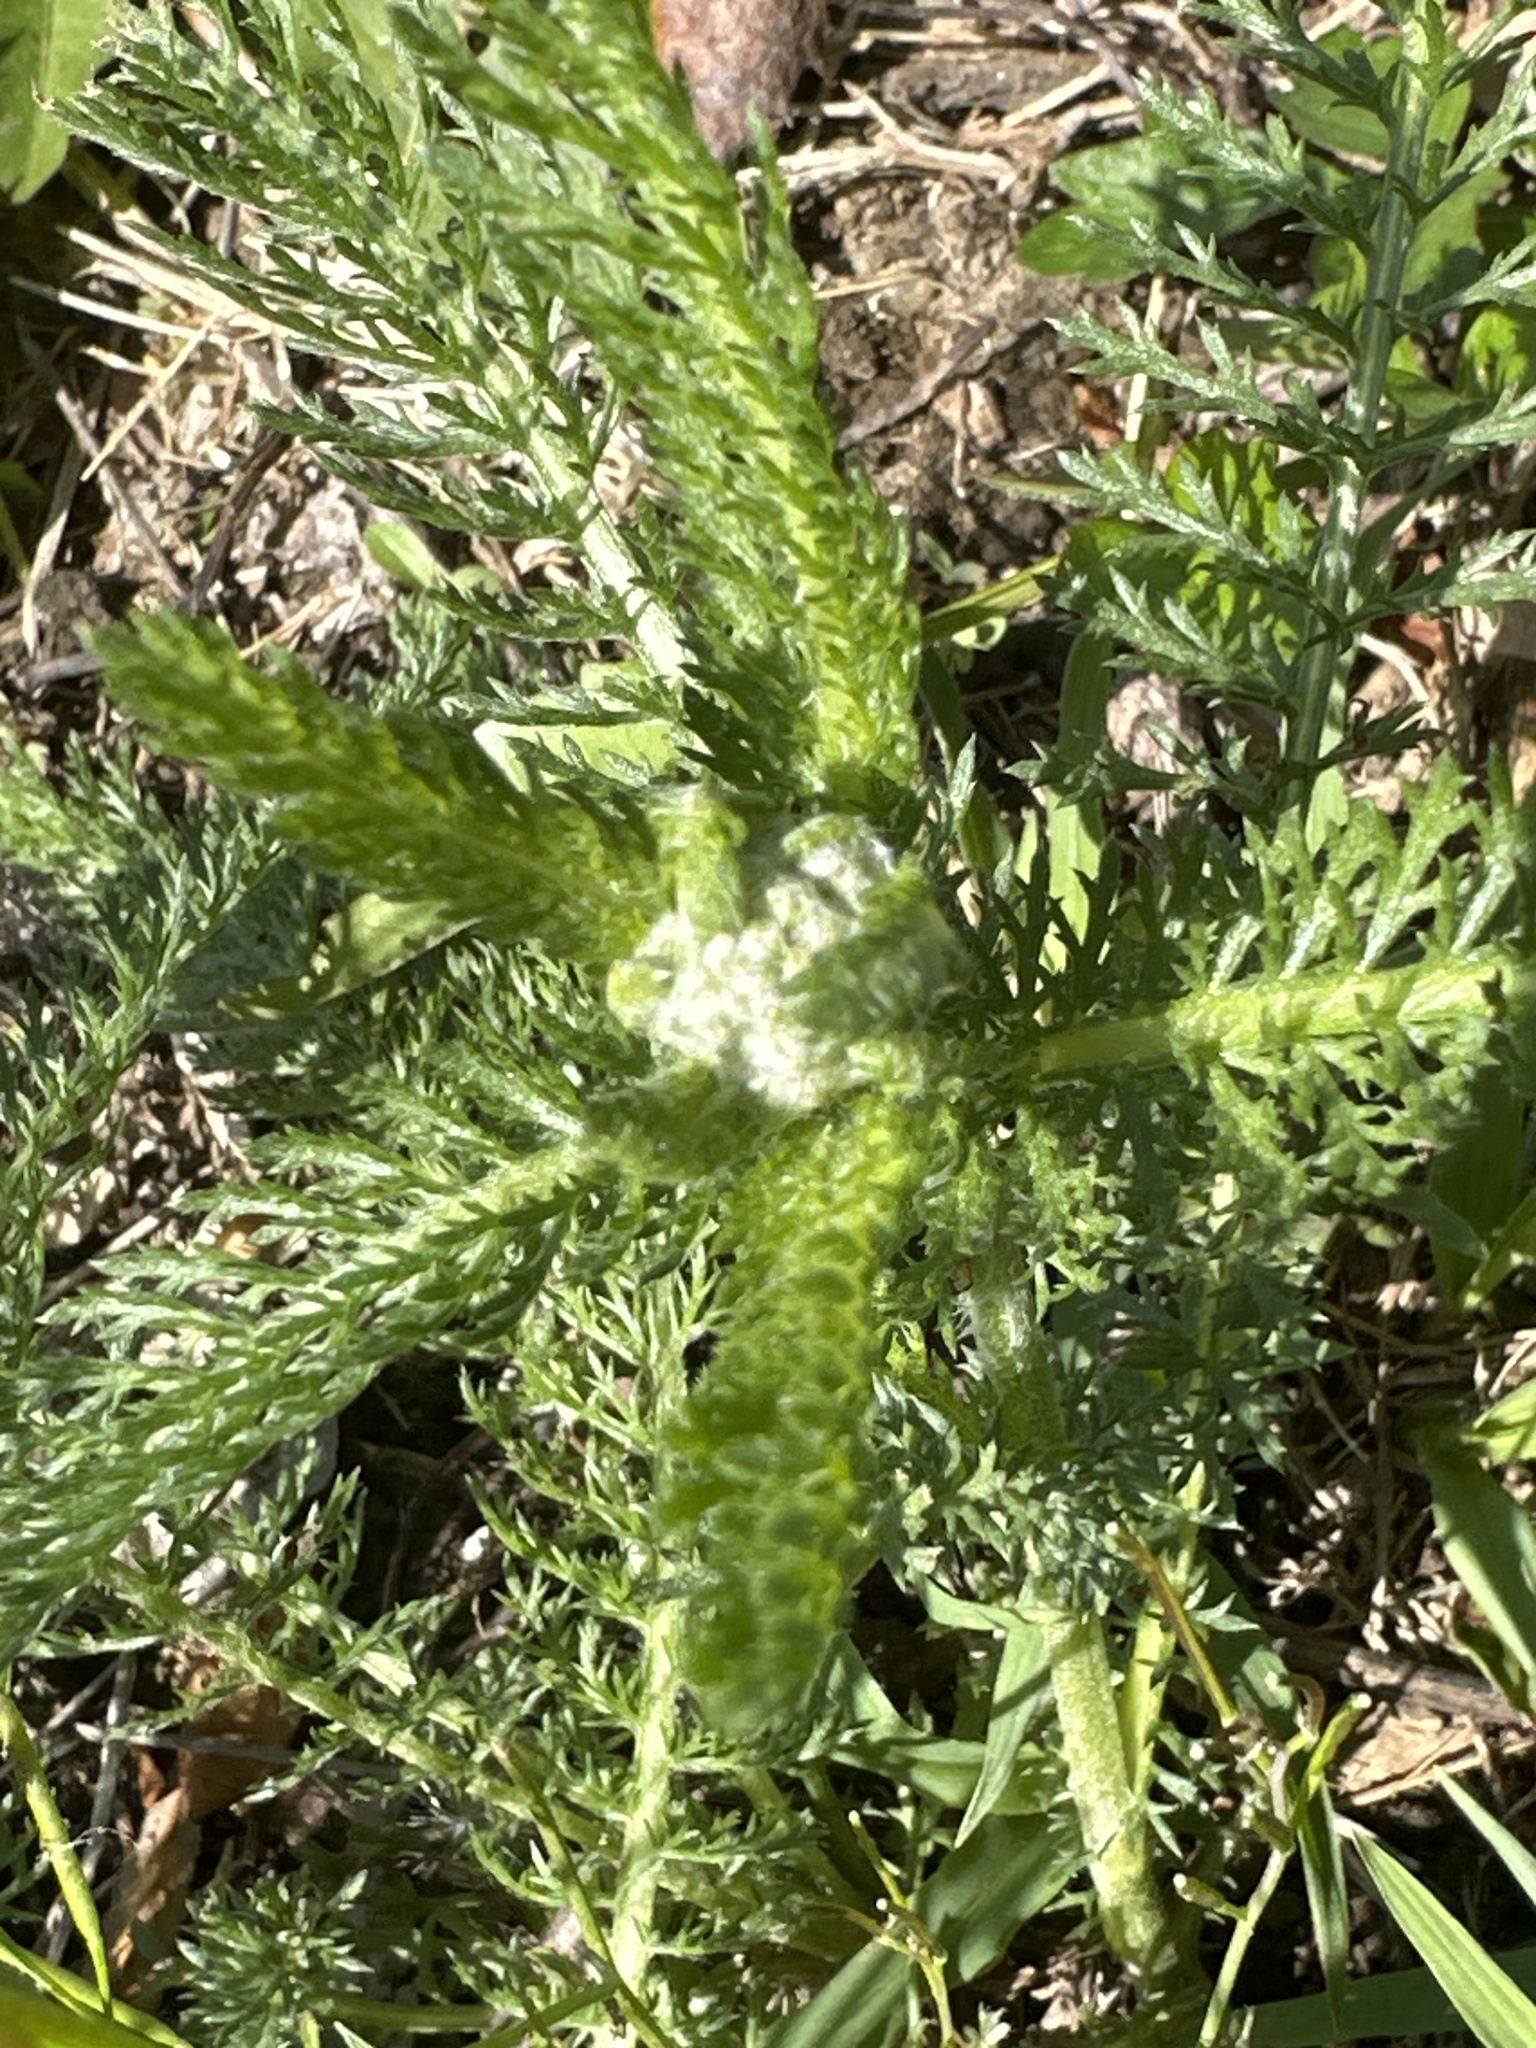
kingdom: Plantae
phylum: Tracheophyta
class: Magnoliopsida
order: Asterales
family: Asteraceae
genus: Achillea
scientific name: Achillea millefolium
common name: Yarrow
